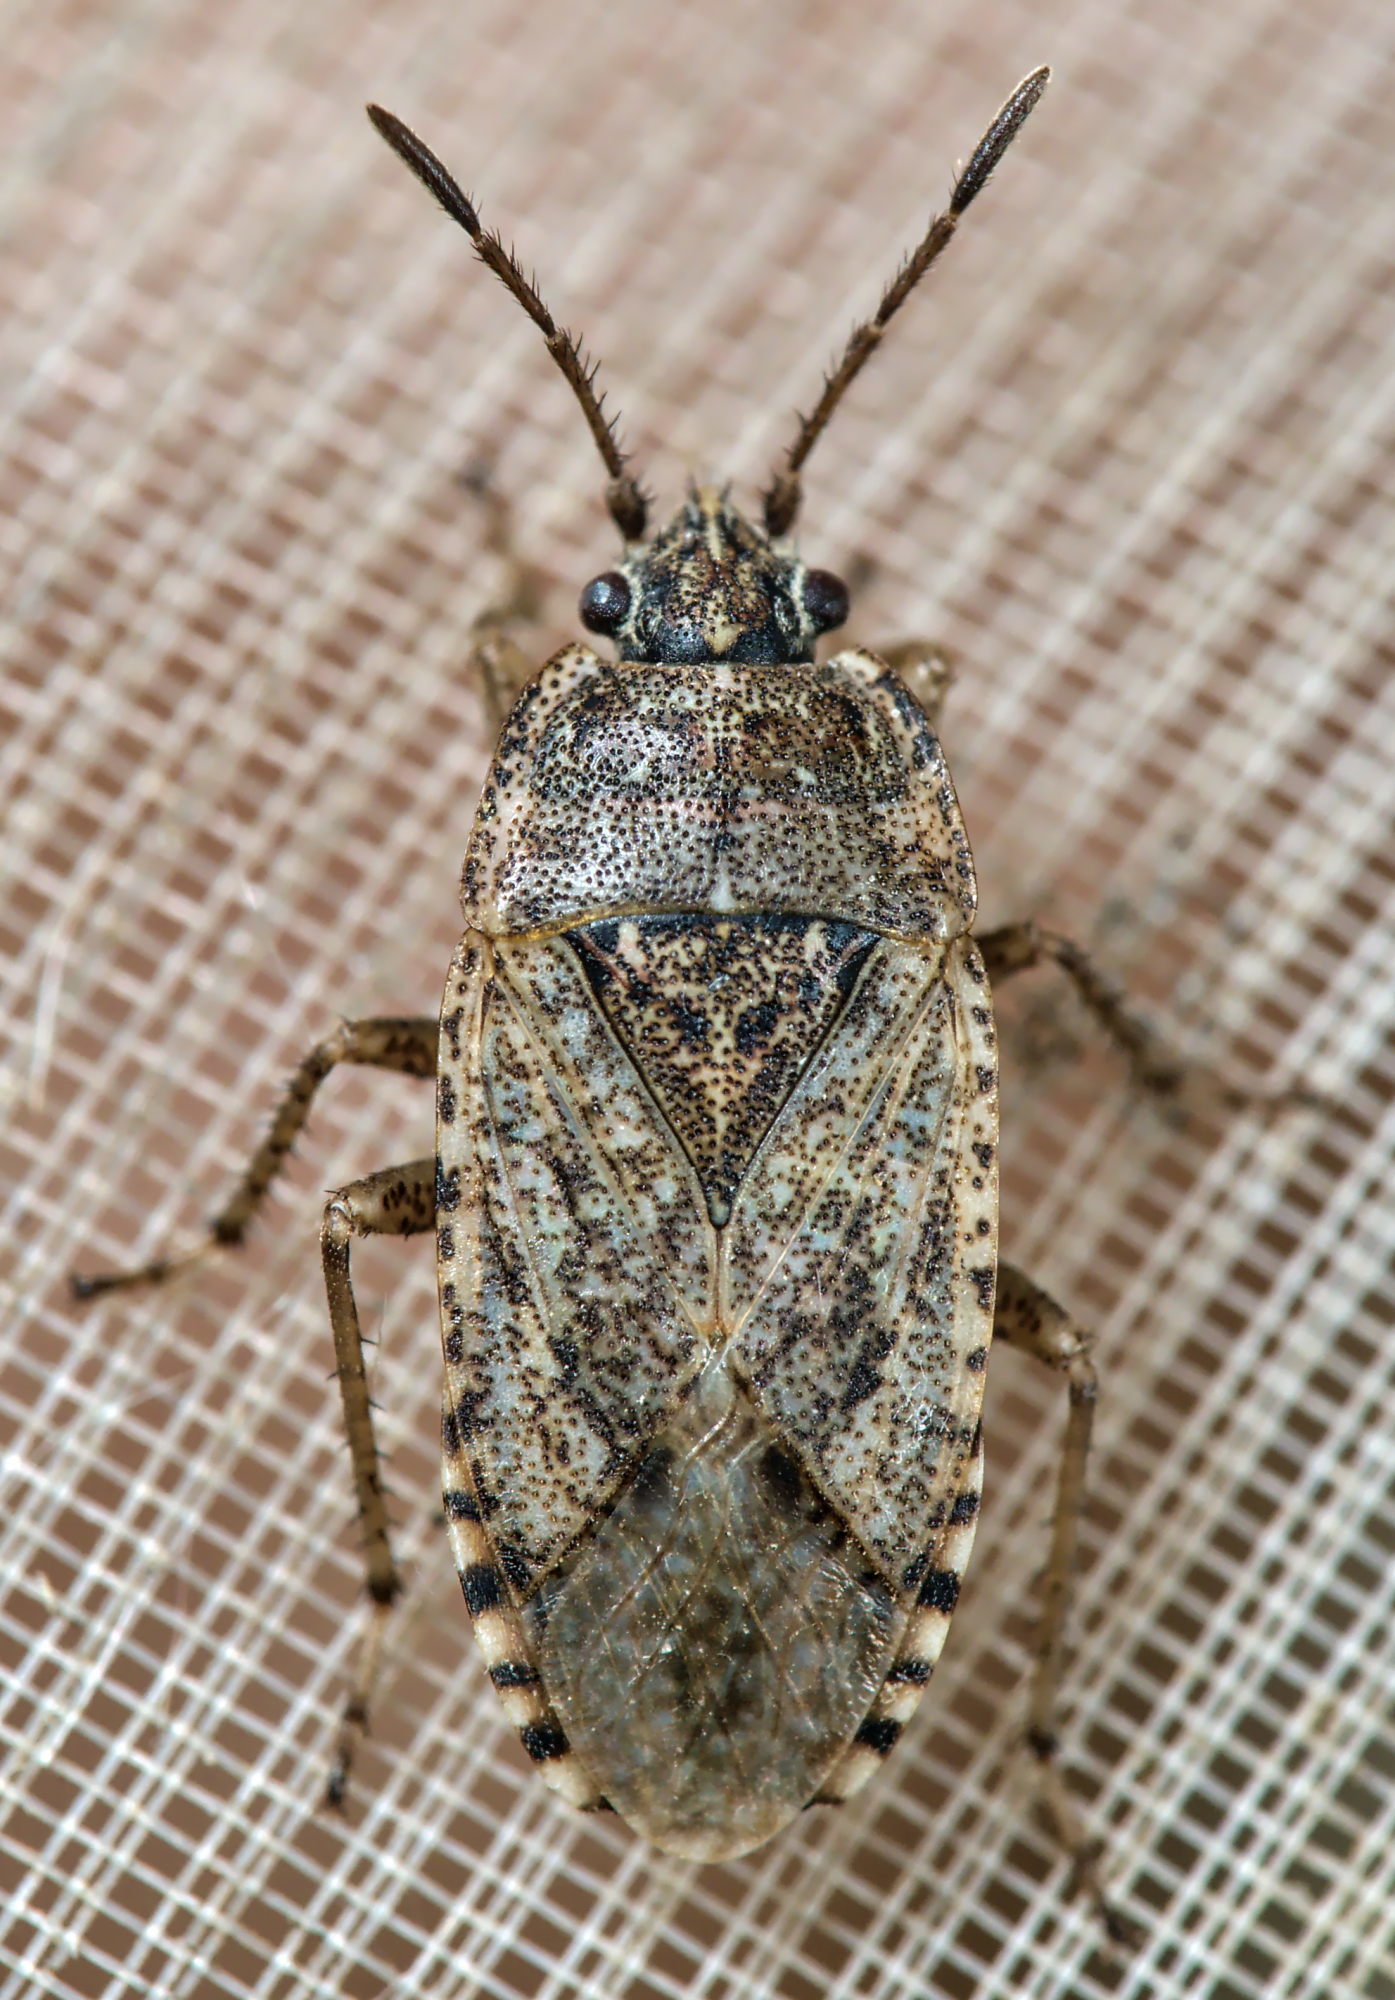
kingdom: Animalia
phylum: Arthropoda
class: Insecta
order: Hemiptera
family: Rhyparochromidae
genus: Emblethis
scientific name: Emblethis denticollis
